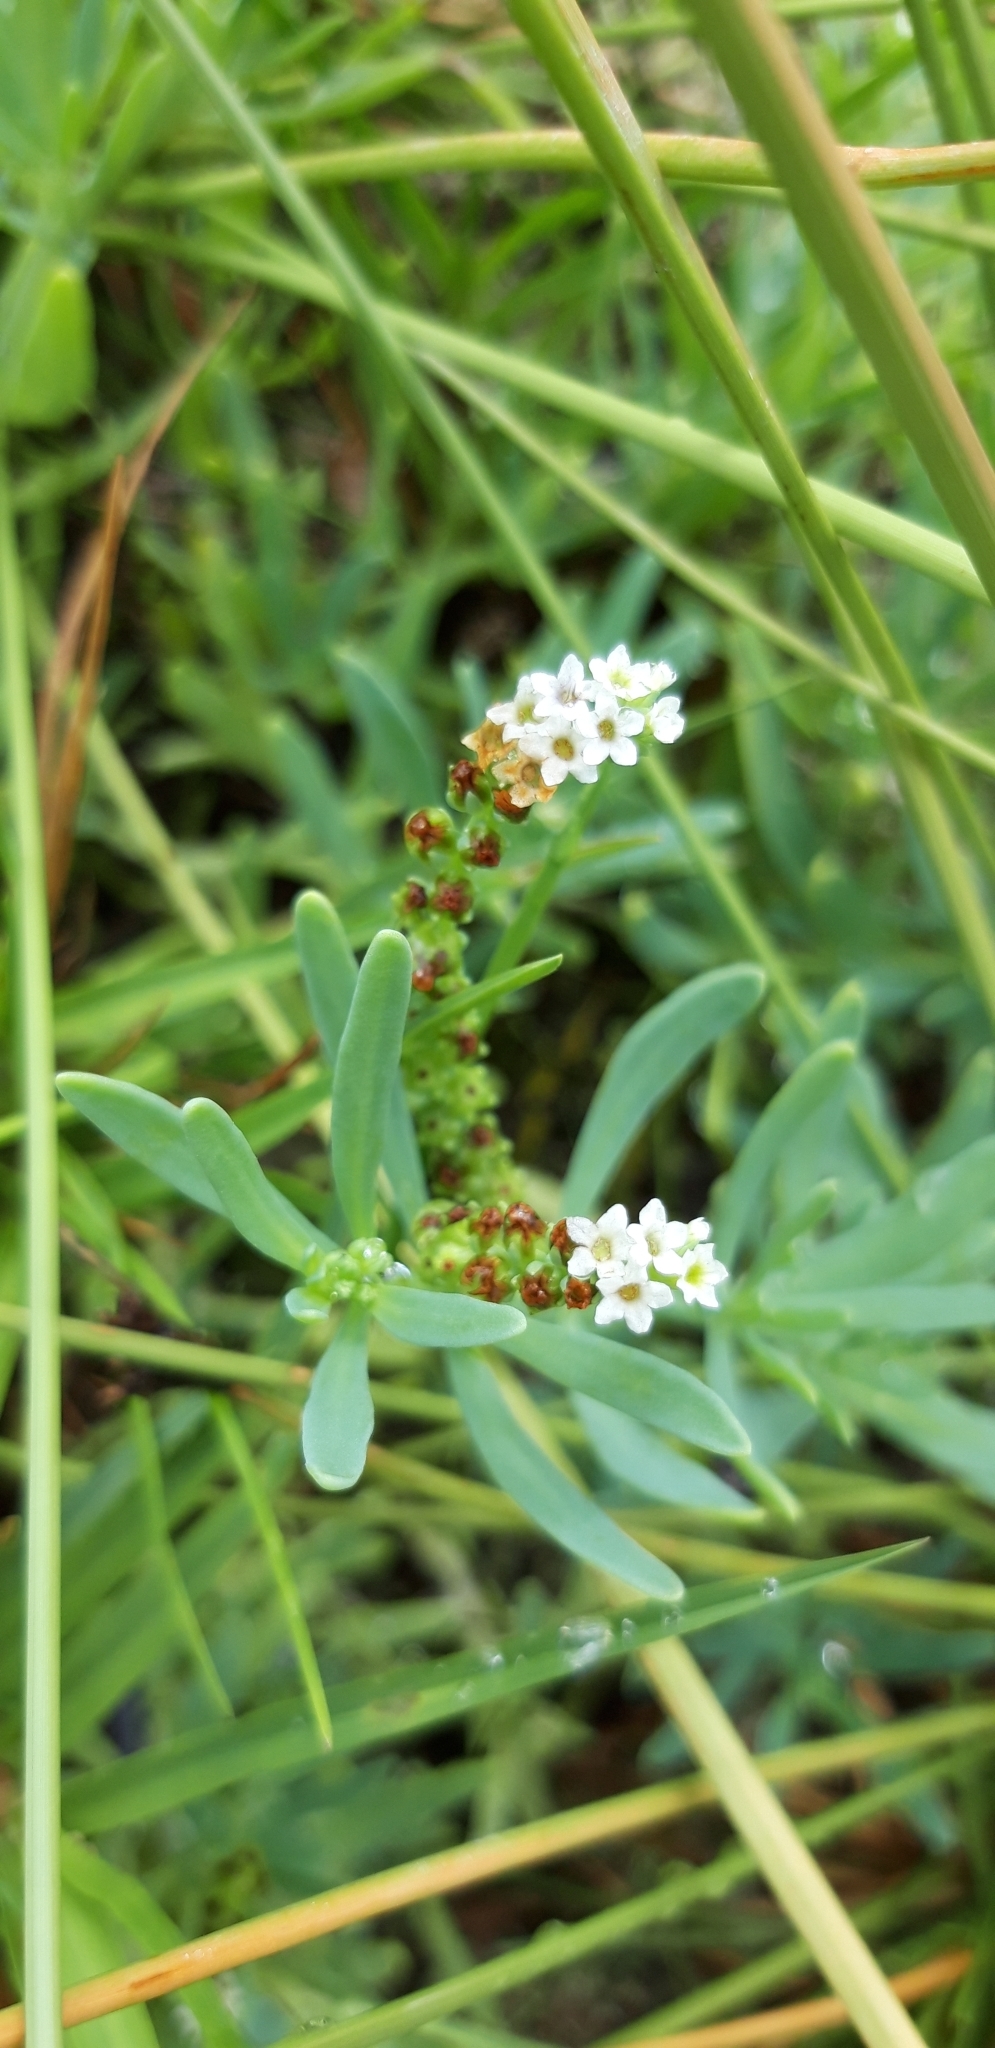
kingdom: Plantae
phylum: Tracheophyta
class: Magnoliopsida
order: Boraginales
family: Heliotropiaceae
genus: Heliotropium
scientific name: Heliotropium curassavicum
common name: Seaside heliotrope
